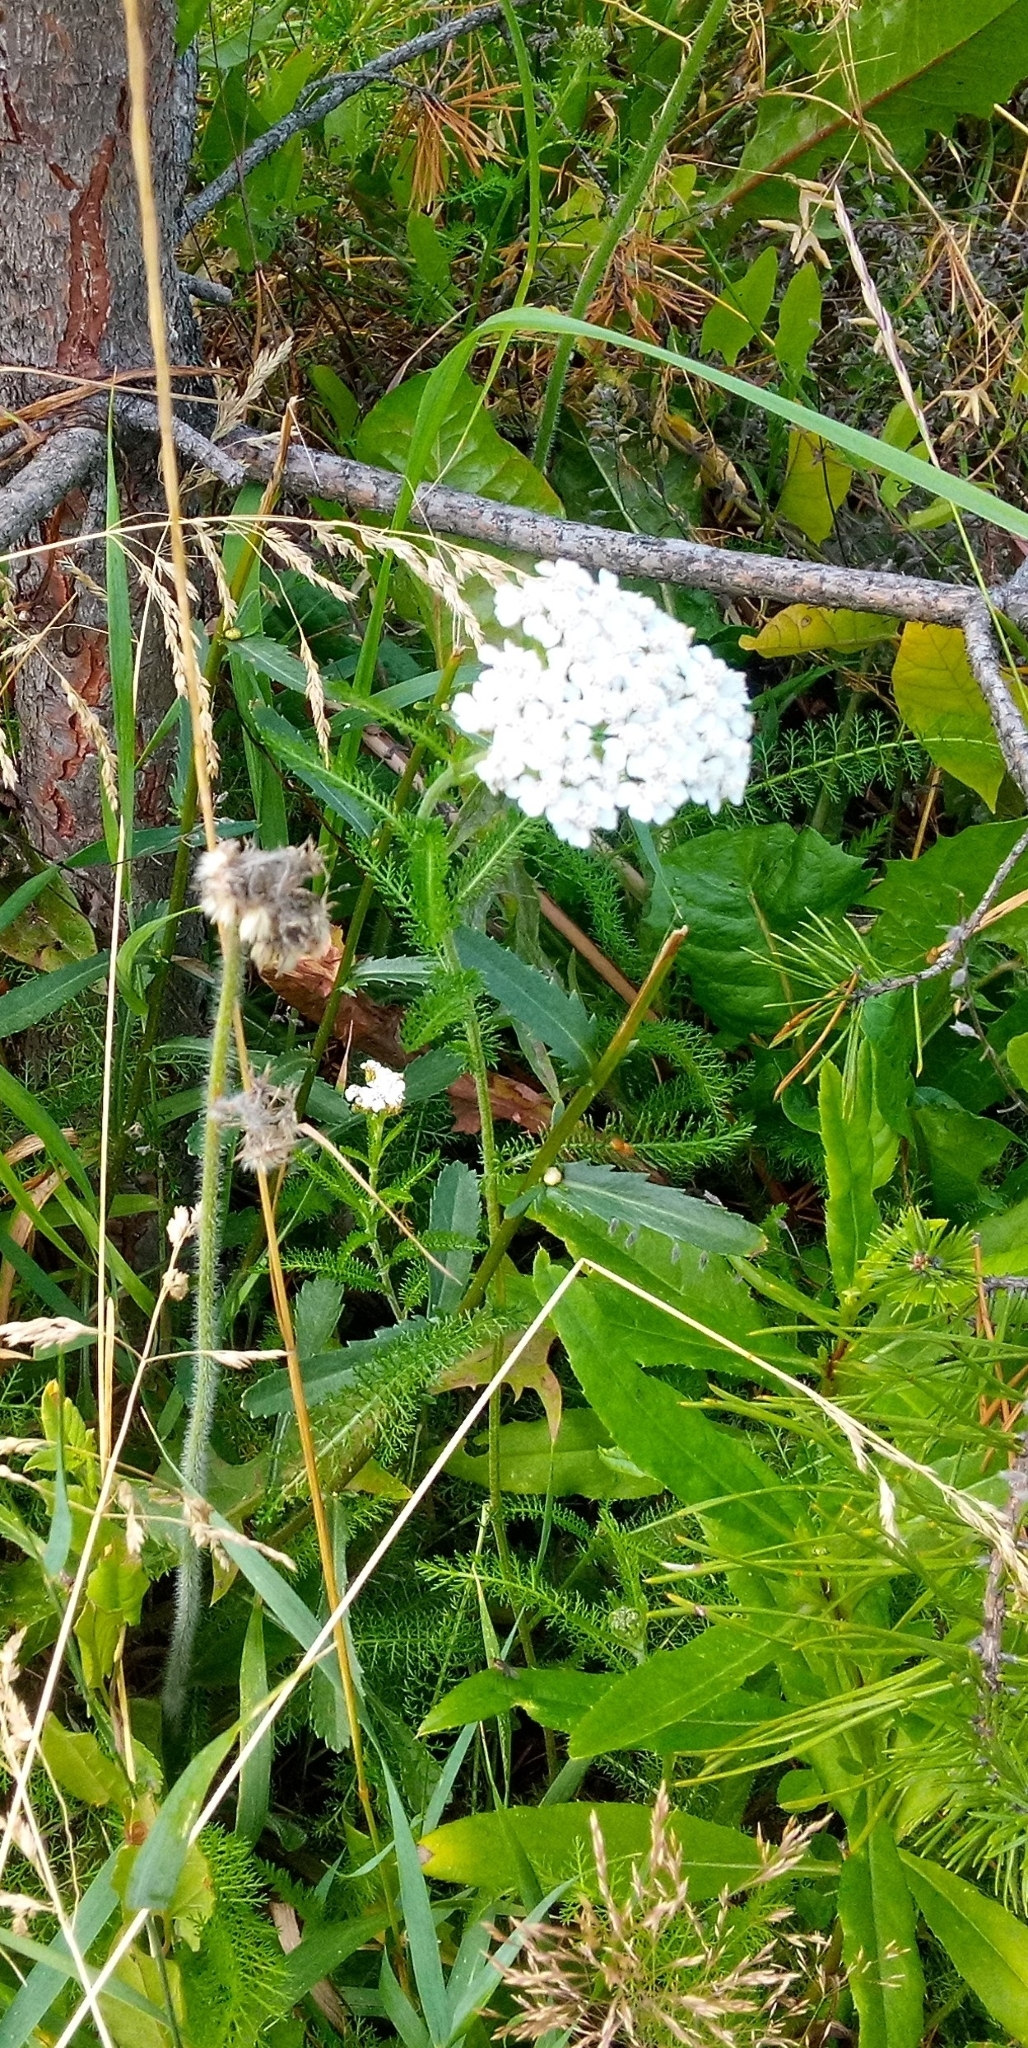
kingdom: Plantae
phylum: Tracheophyta
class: Magnoliopsida
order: Asterales
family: Asteraceae
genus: Achillea
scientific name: Achillea millefolium
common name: Yarrow
